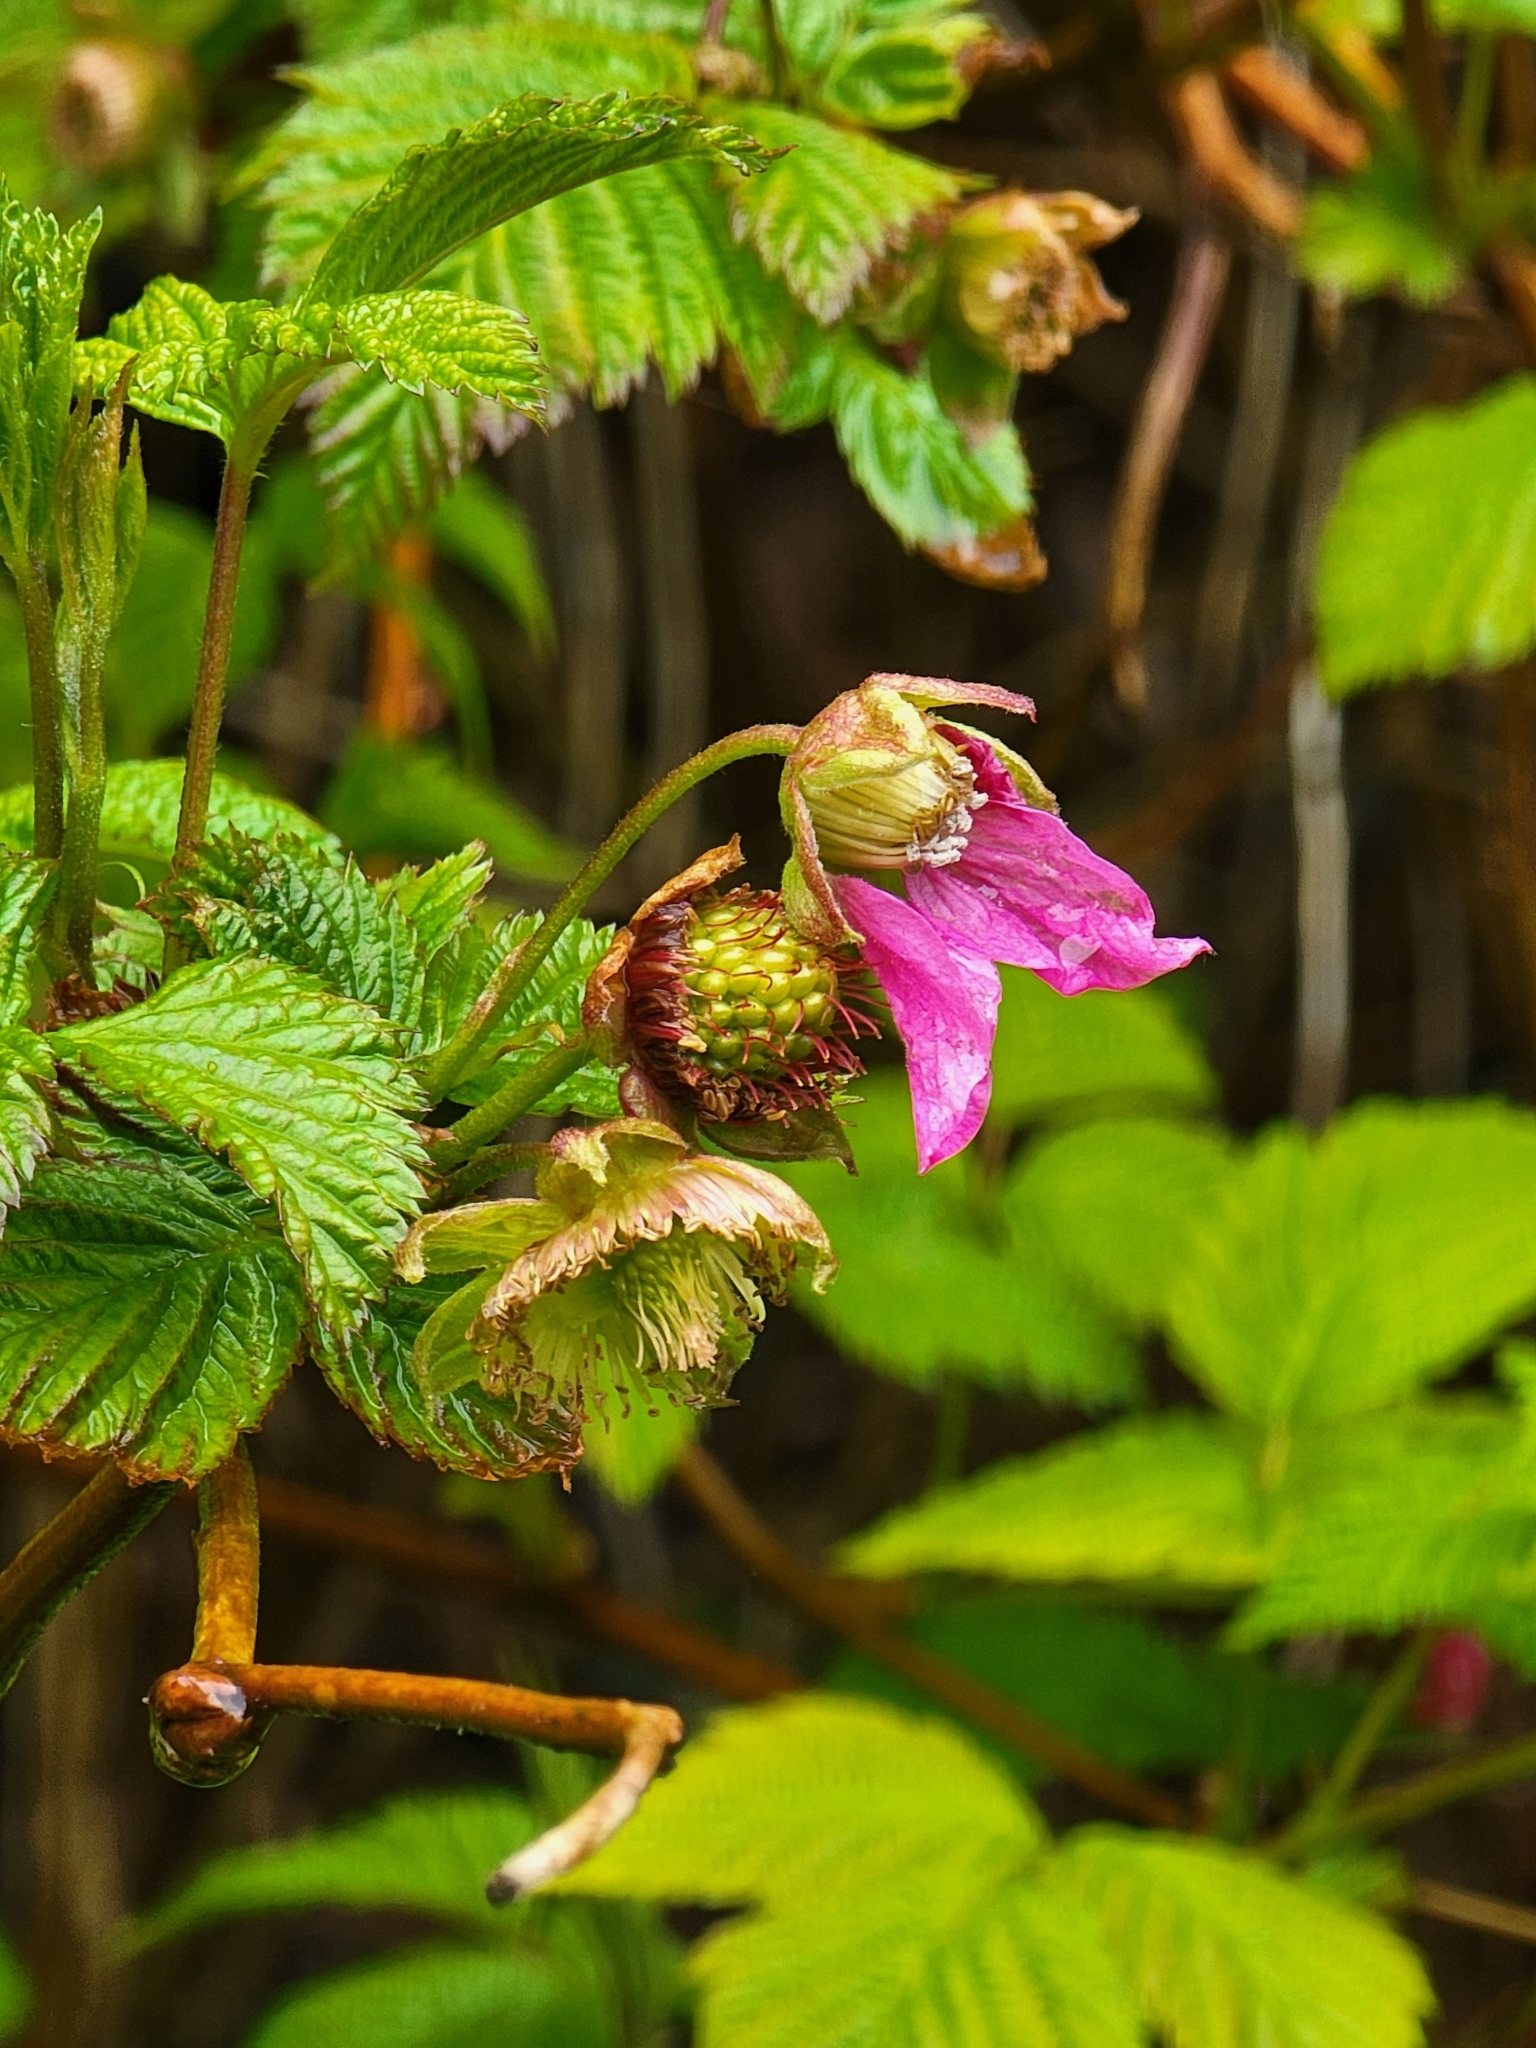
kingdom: Plantae
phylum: Tracheophyta
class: Magnoliopsida
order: Rosales
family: Rosaceae
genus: Rubus
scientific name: Rubus spectabilis
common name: Salmonberry
